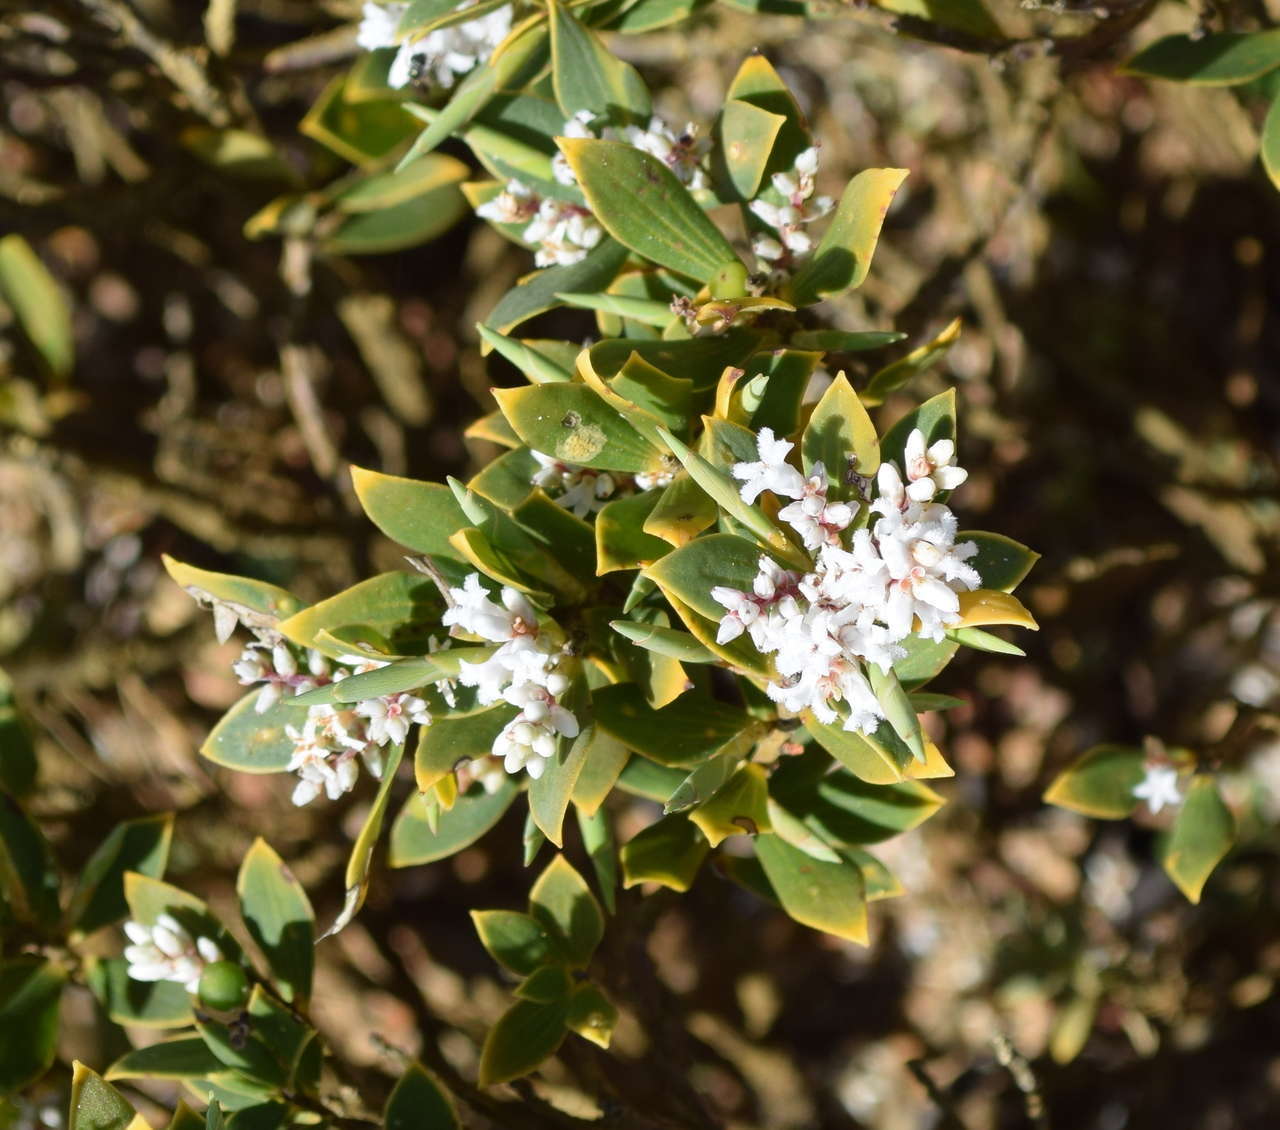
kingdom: Plantae
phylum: Tracheophyta
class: Magnoliopsida
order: Ericales
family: Ericaceae
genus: Leptecophylla
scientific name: Leptecophylla parvifolia
